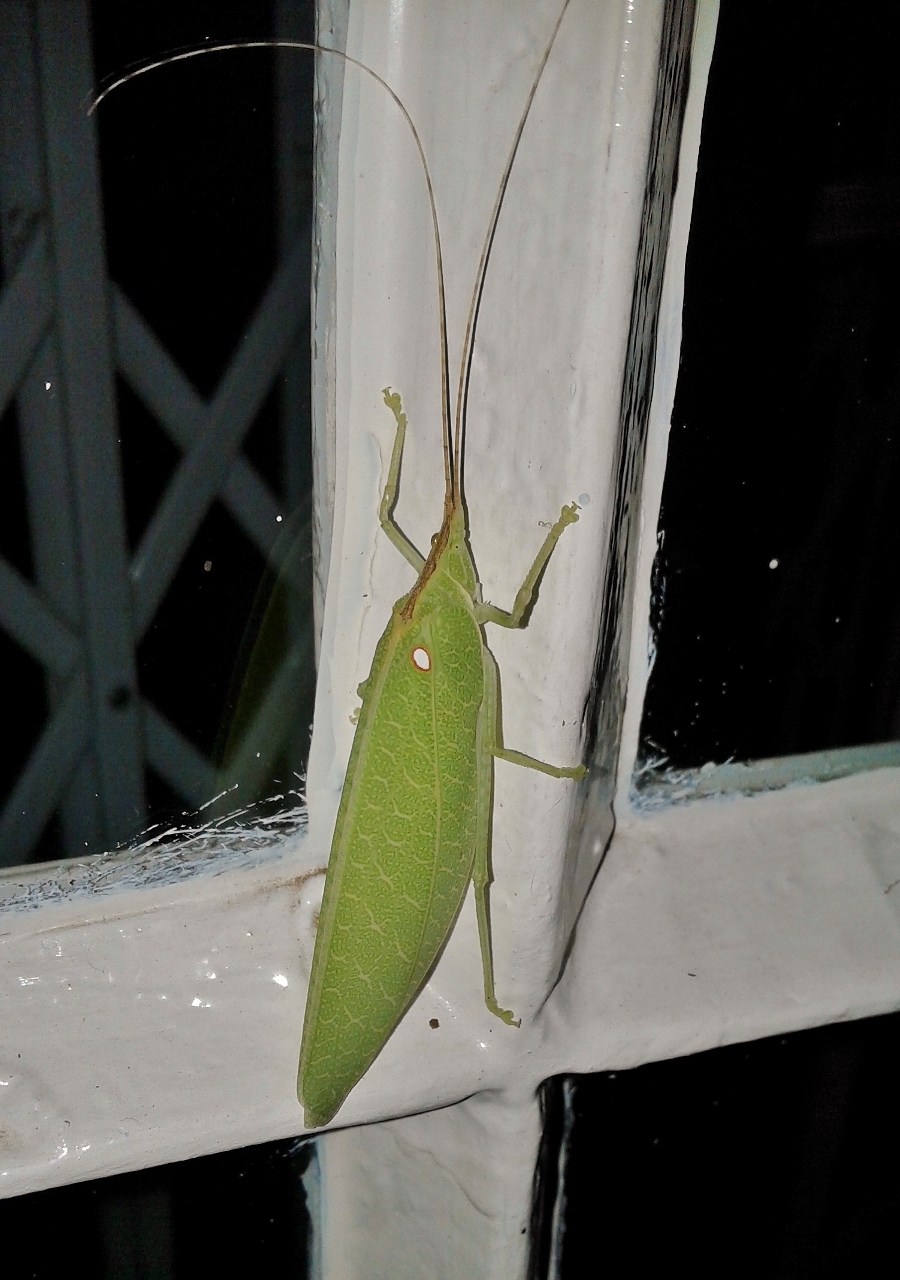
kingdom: Animalia
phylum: Arthropoda
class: Insecta
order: Orthoptera
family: Tettigoniidae
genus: Acauloplax
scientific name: Acauloplax exigua
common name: Elegant sylvan katydid
